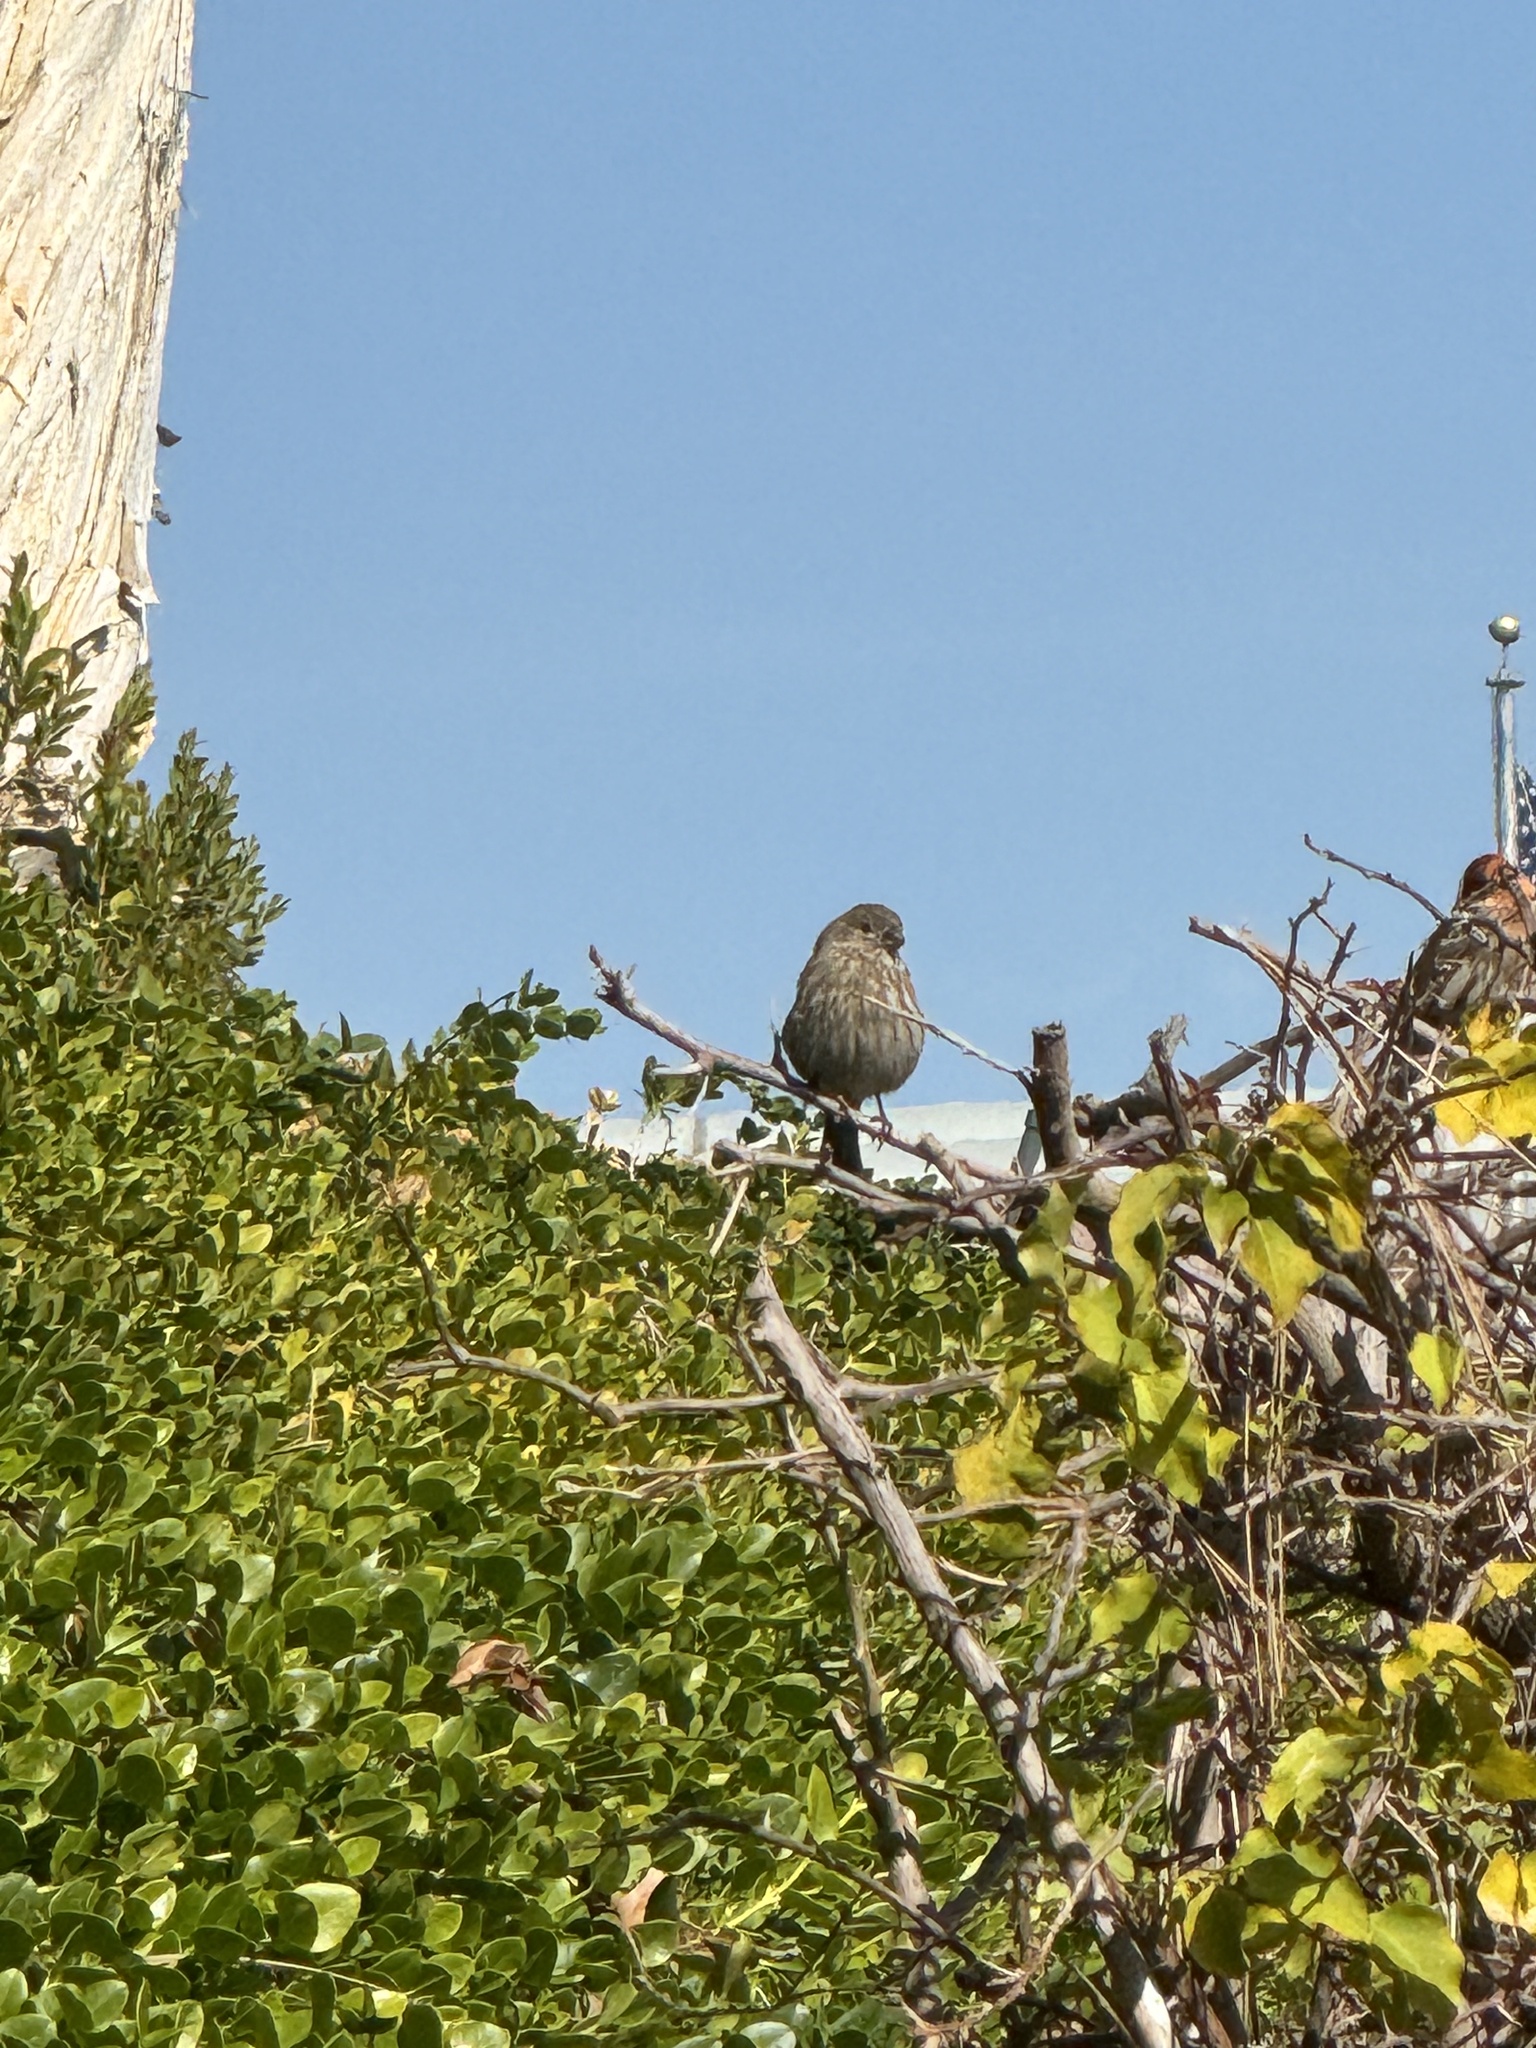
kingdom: Animalia
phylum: Chordata
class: Aves
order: Passeriformes
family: Fringillidae
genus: Haemorhous
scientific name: Haemorhous mexicanus
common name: House finch
